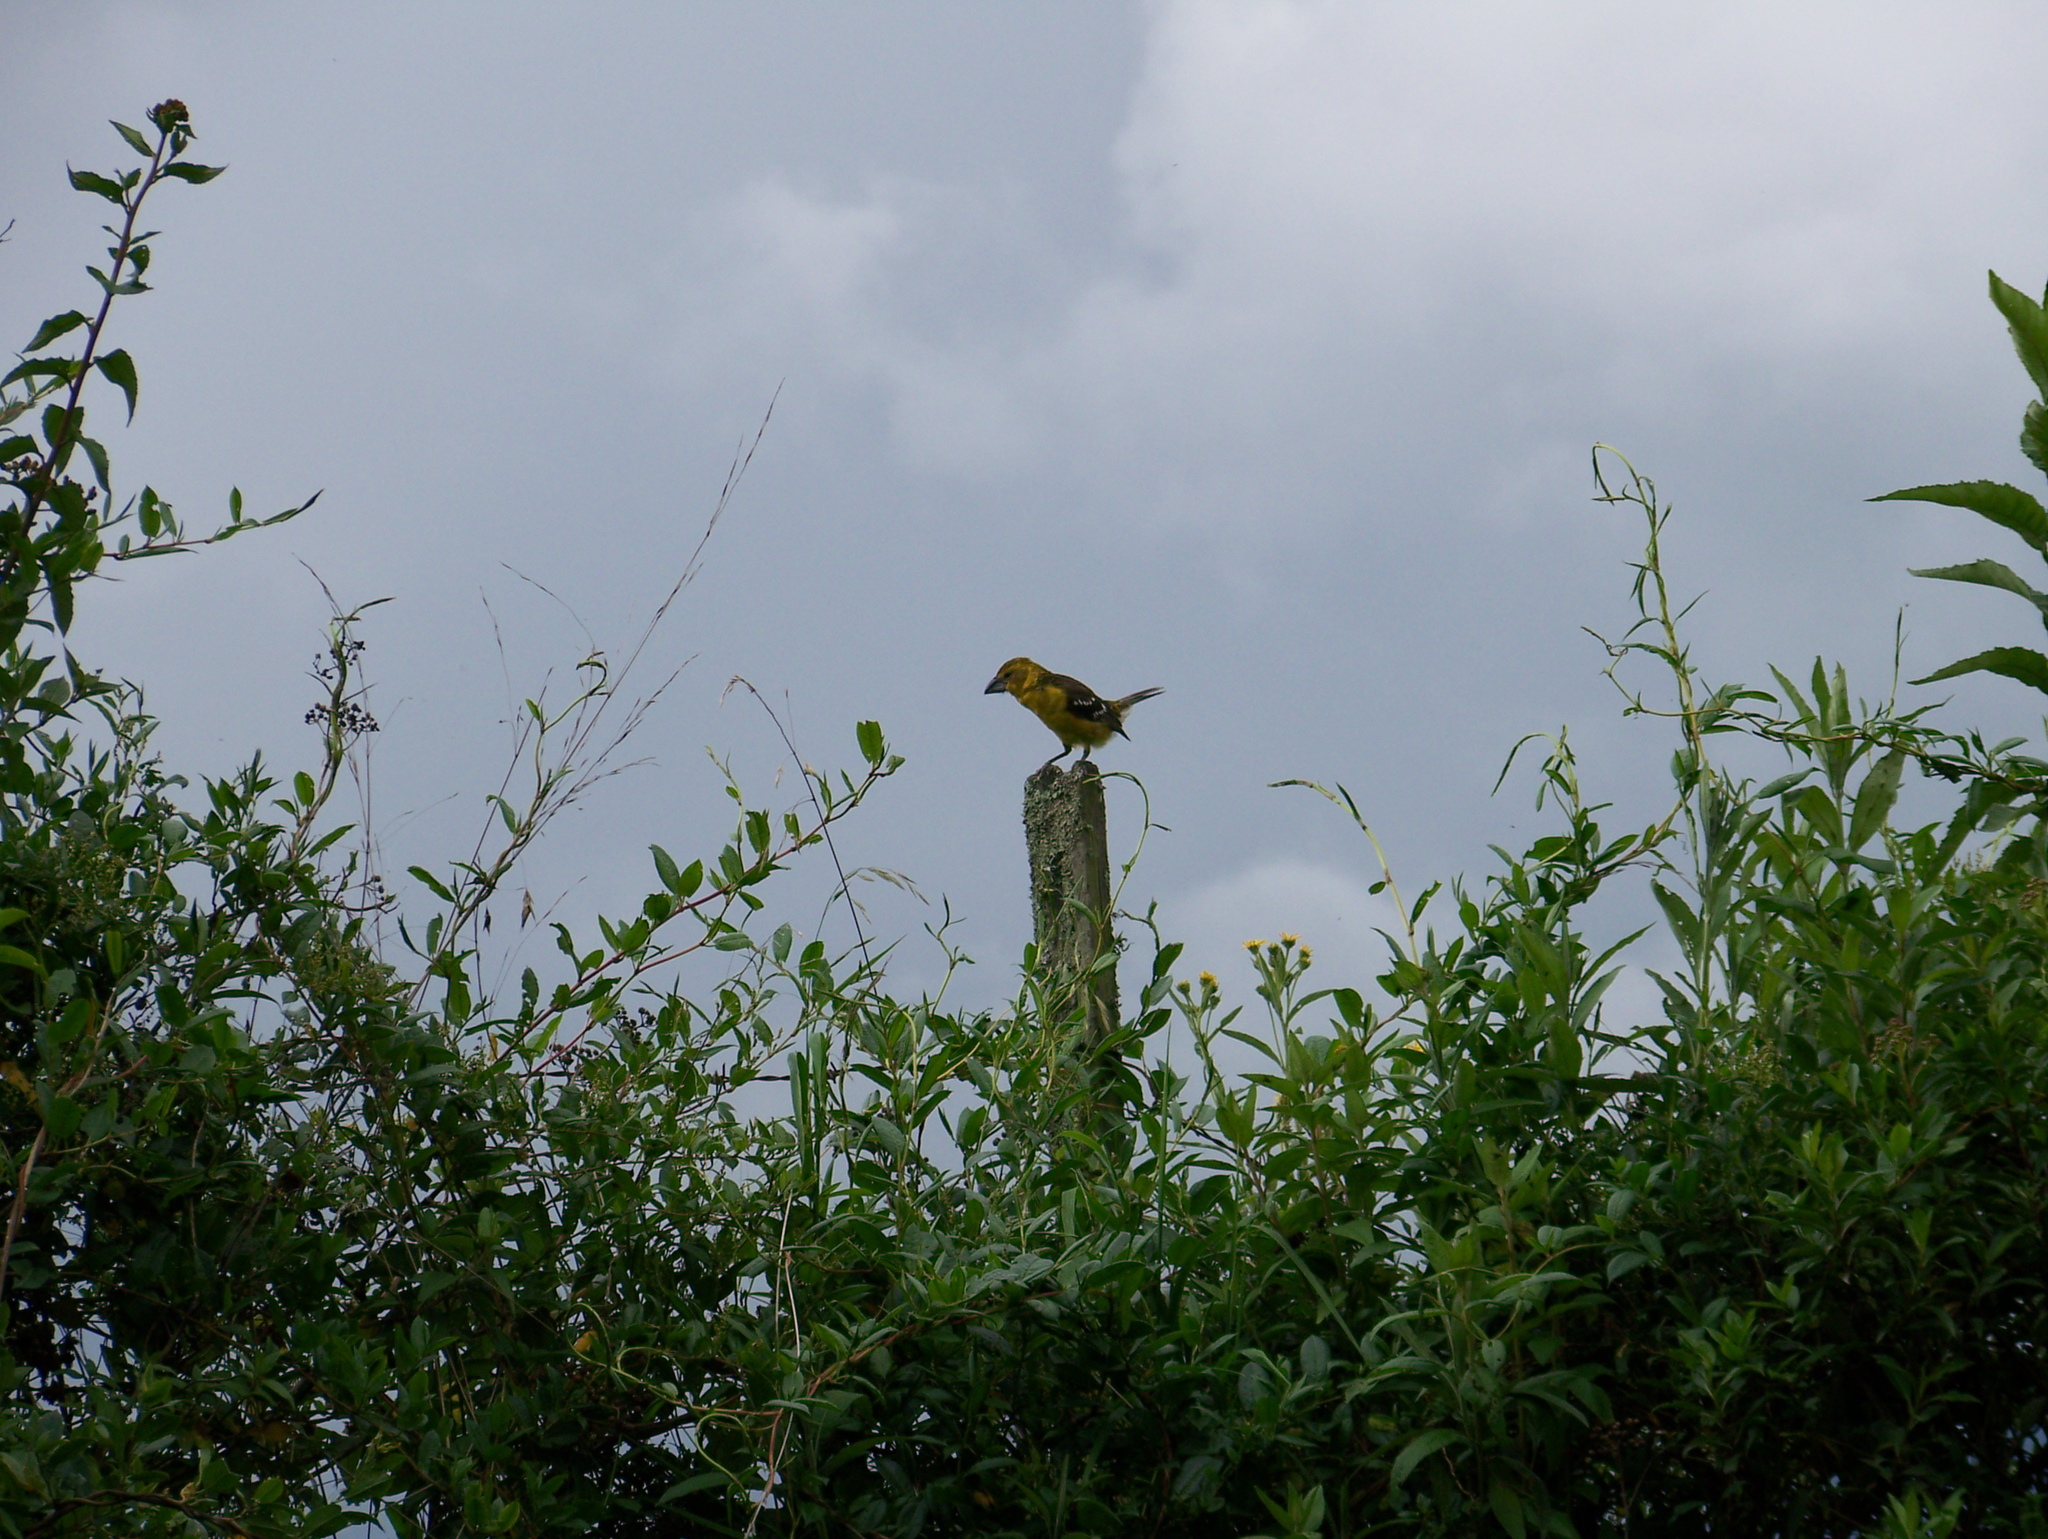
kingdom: Animalia
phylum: Chordata
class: Aves
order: Passeriformes
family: Cardinalidae
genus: Pheucticus
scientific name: Pheucticus chrysogaster
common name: Golden grosbeak
